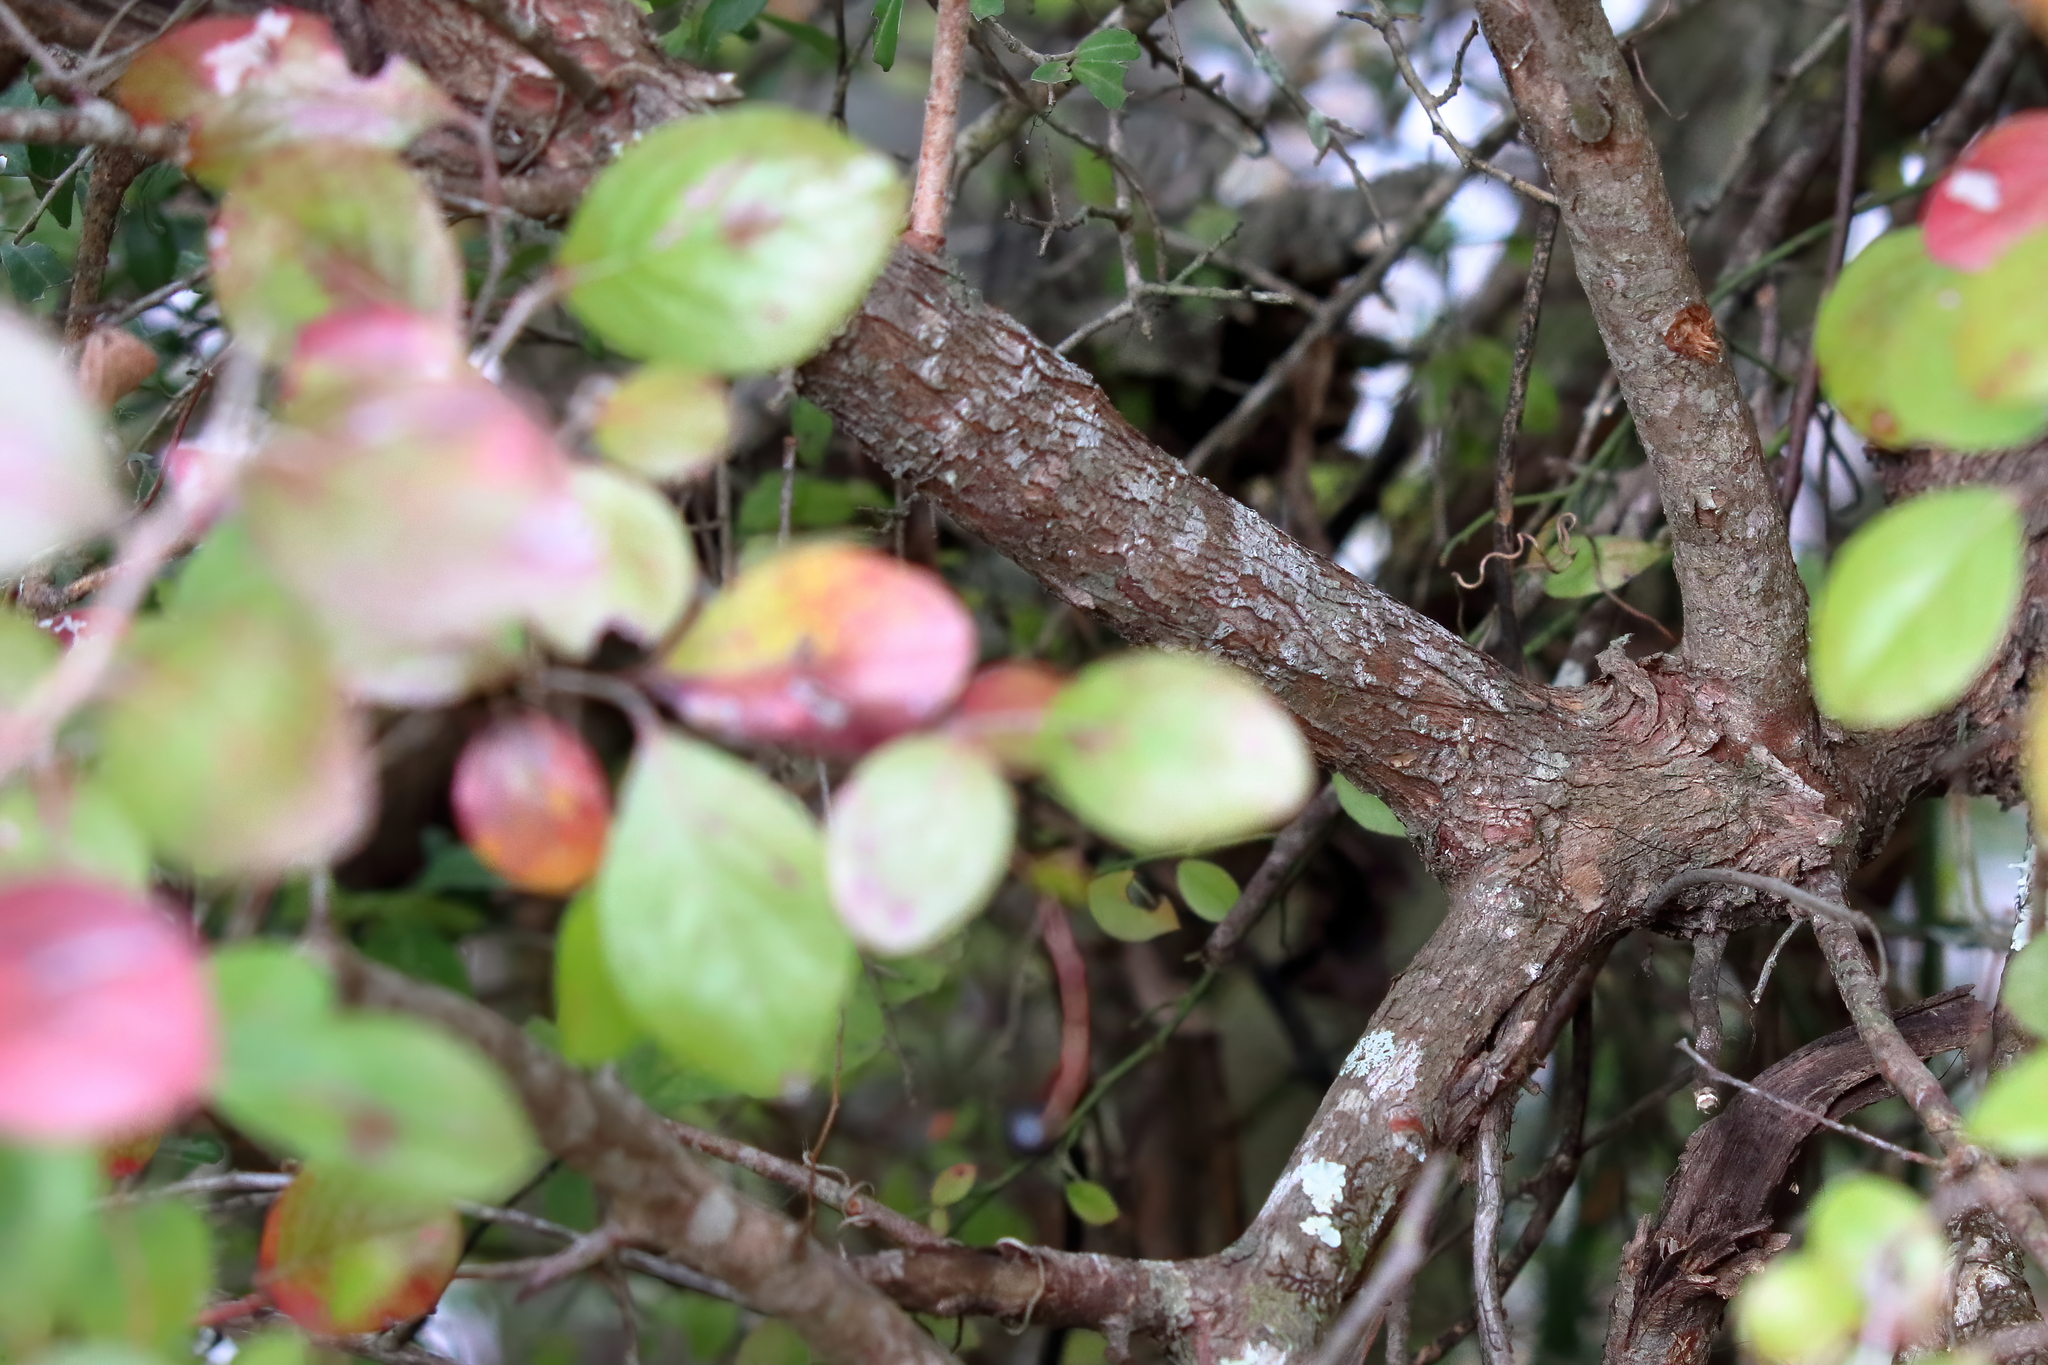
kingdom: Plantae
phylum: Tracheophyta
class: Magnoliopsida
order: Ericales
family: Ericaceae
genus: Vaccinium
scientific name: Vaccinium arboreum
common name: Farkleberry
